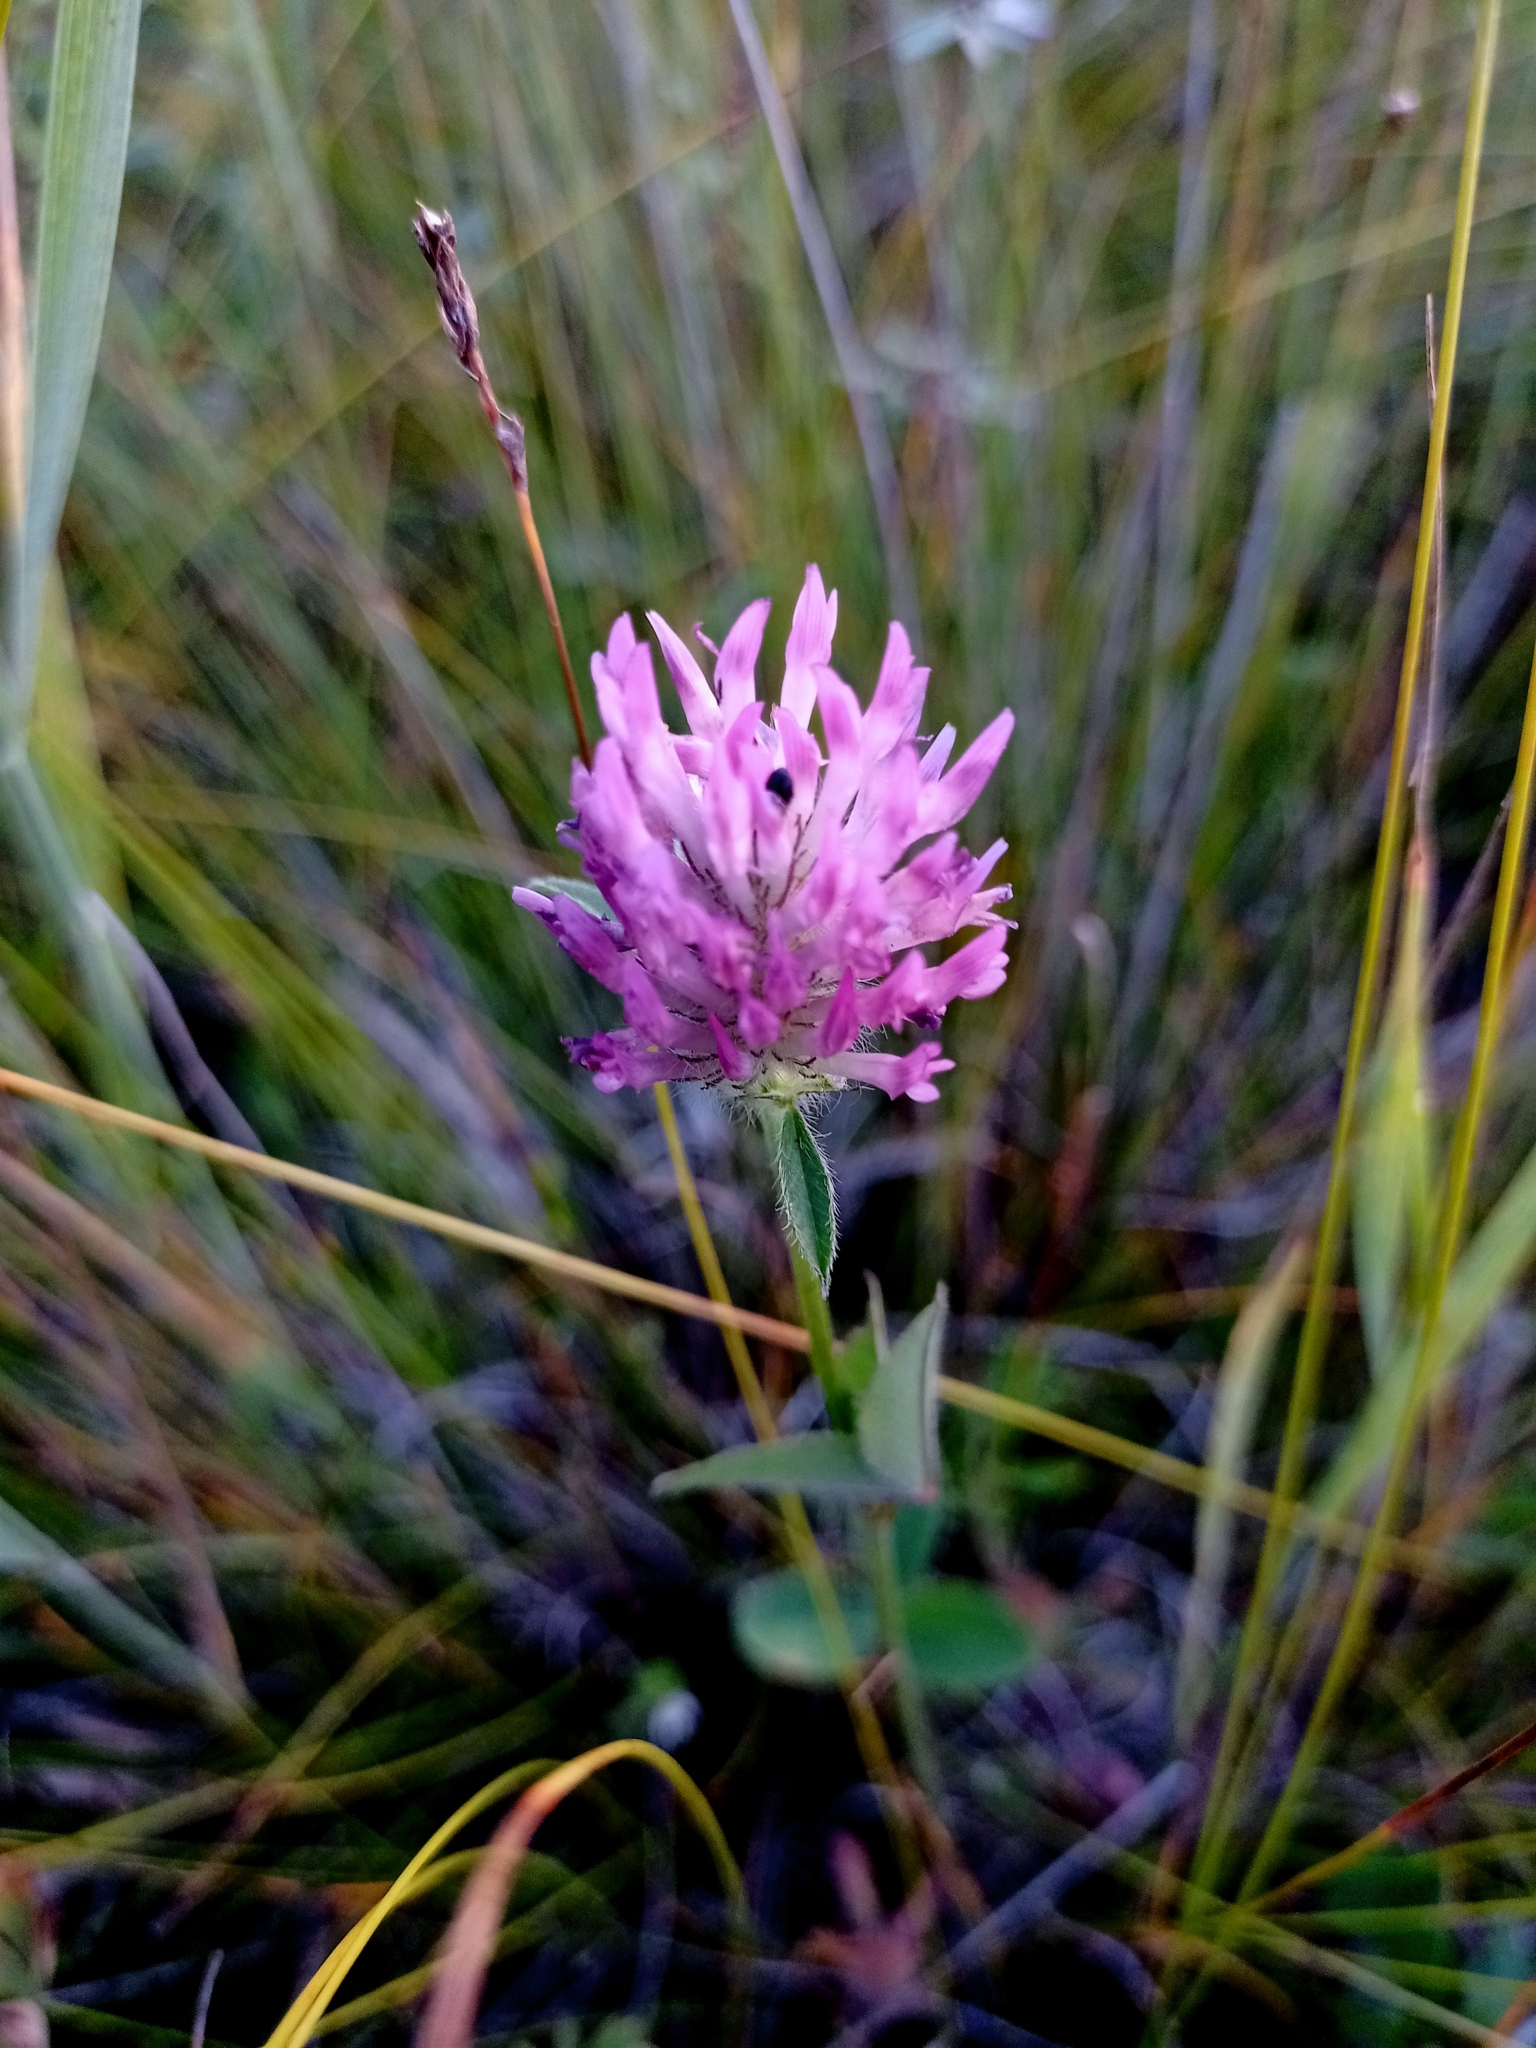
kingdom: Plantae
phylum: Tracheophyta
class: Magnoliopsida
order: Fabales
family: Fabaceae
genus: Trifolium
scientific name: Trifolium pratense
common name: Red clover
